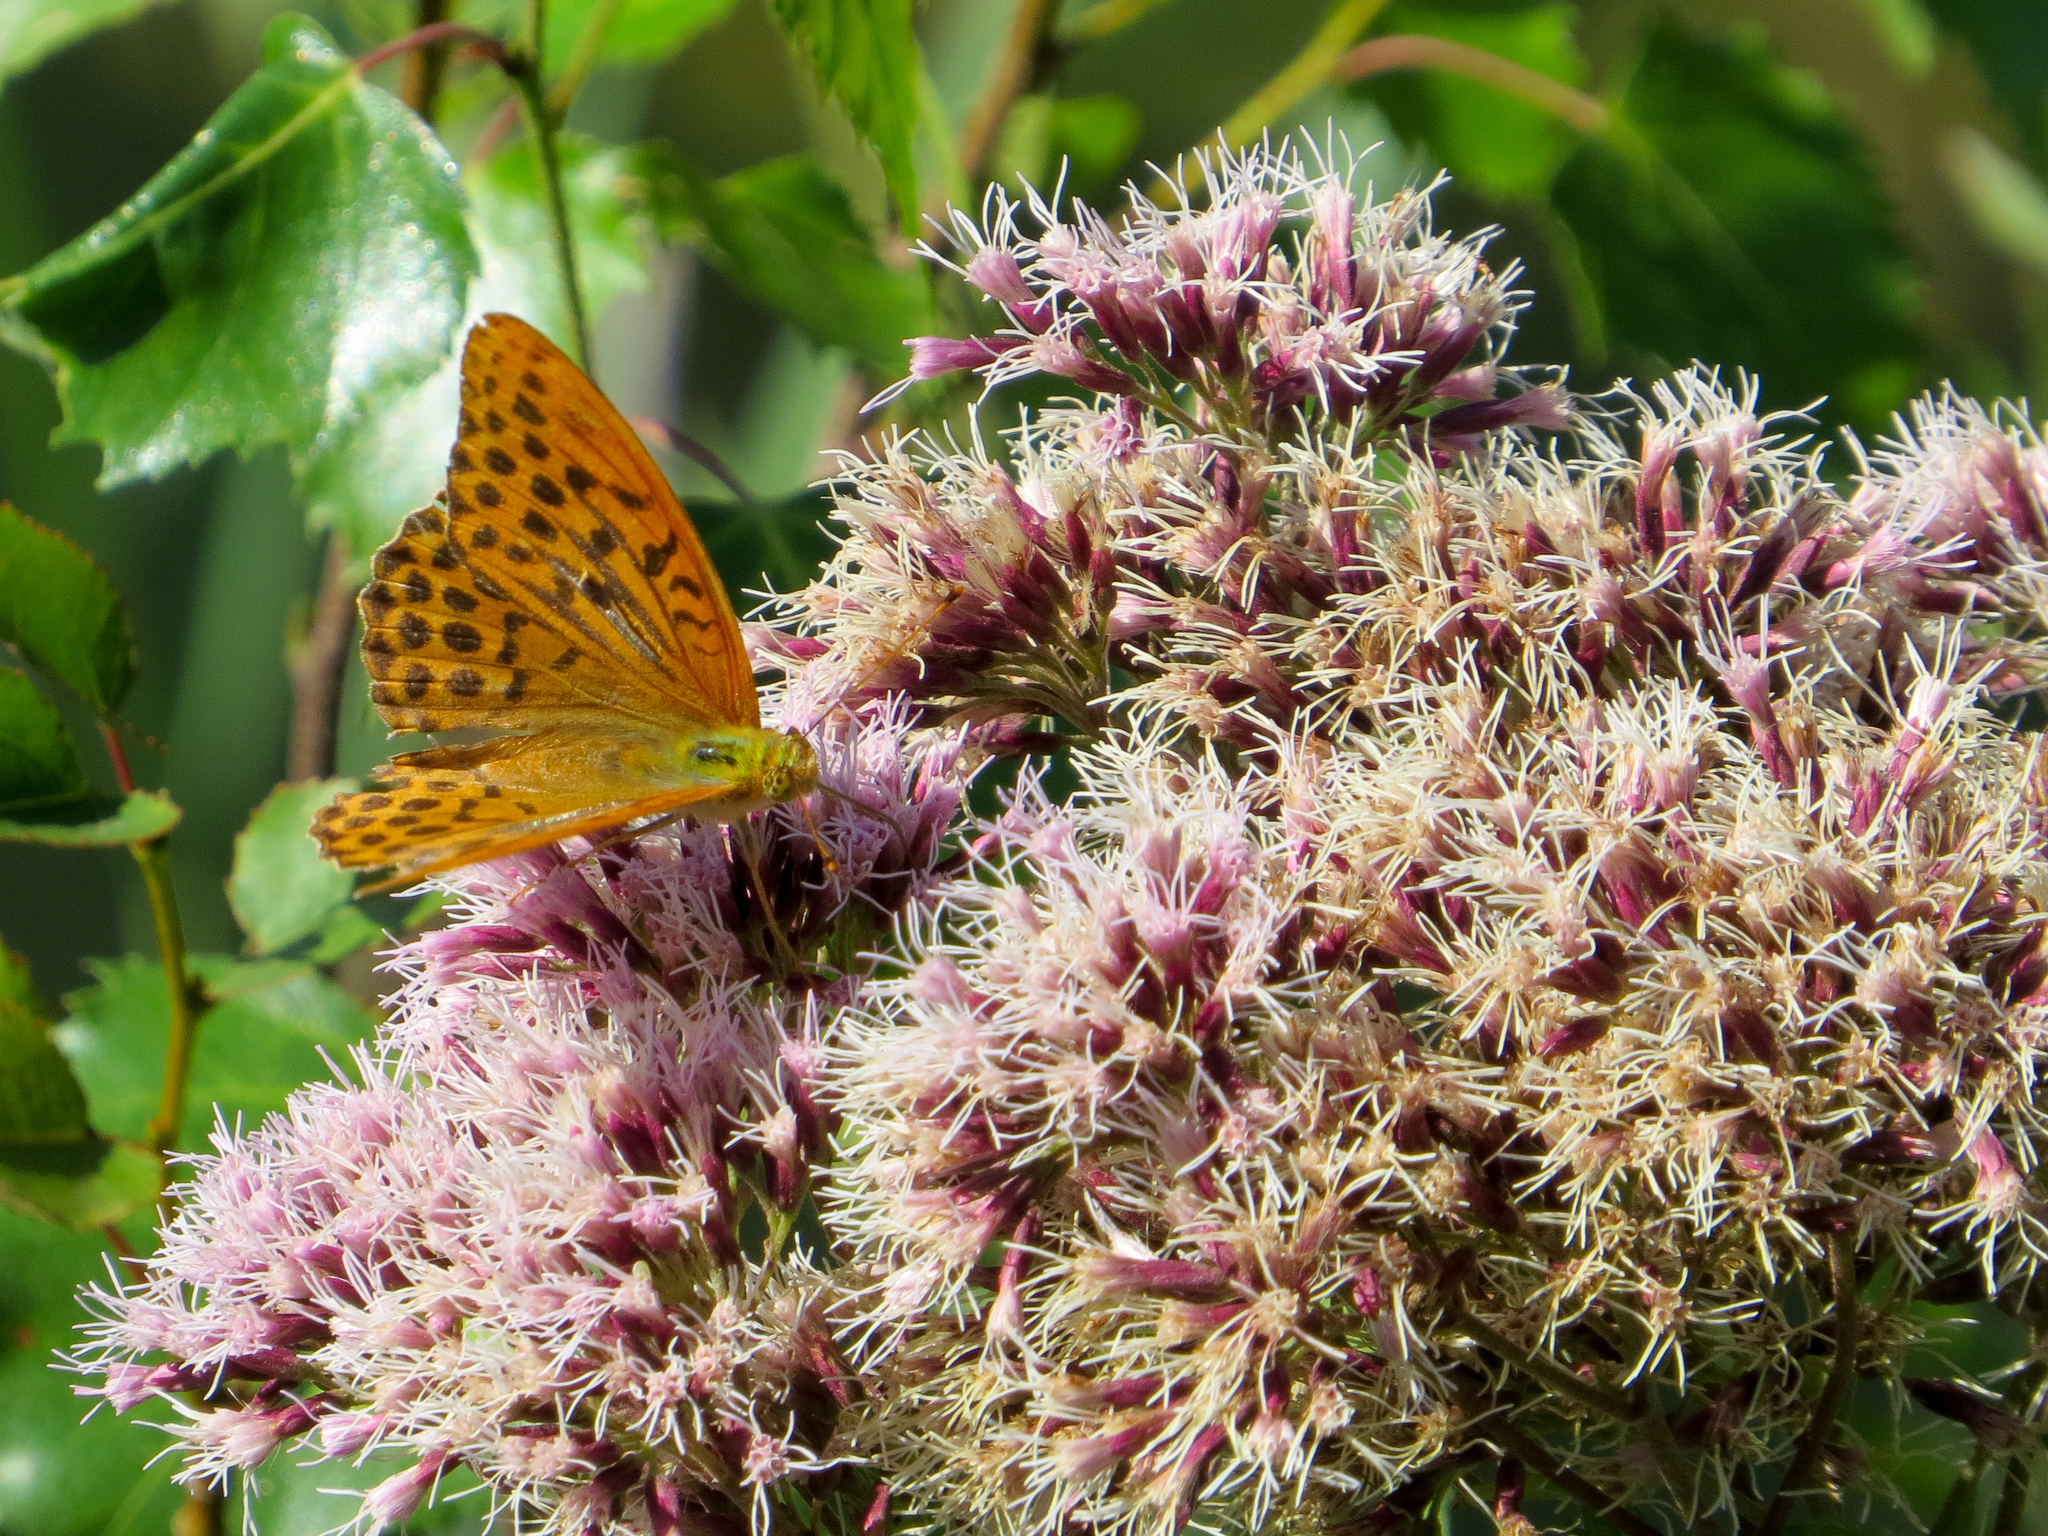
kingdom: Animalia
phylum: Arthropoda
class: Insecta
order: Lepidoptera
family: Nymphalidae
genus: Argynnis
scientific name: Argynnis paphia
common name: Silver-washed fritillary
